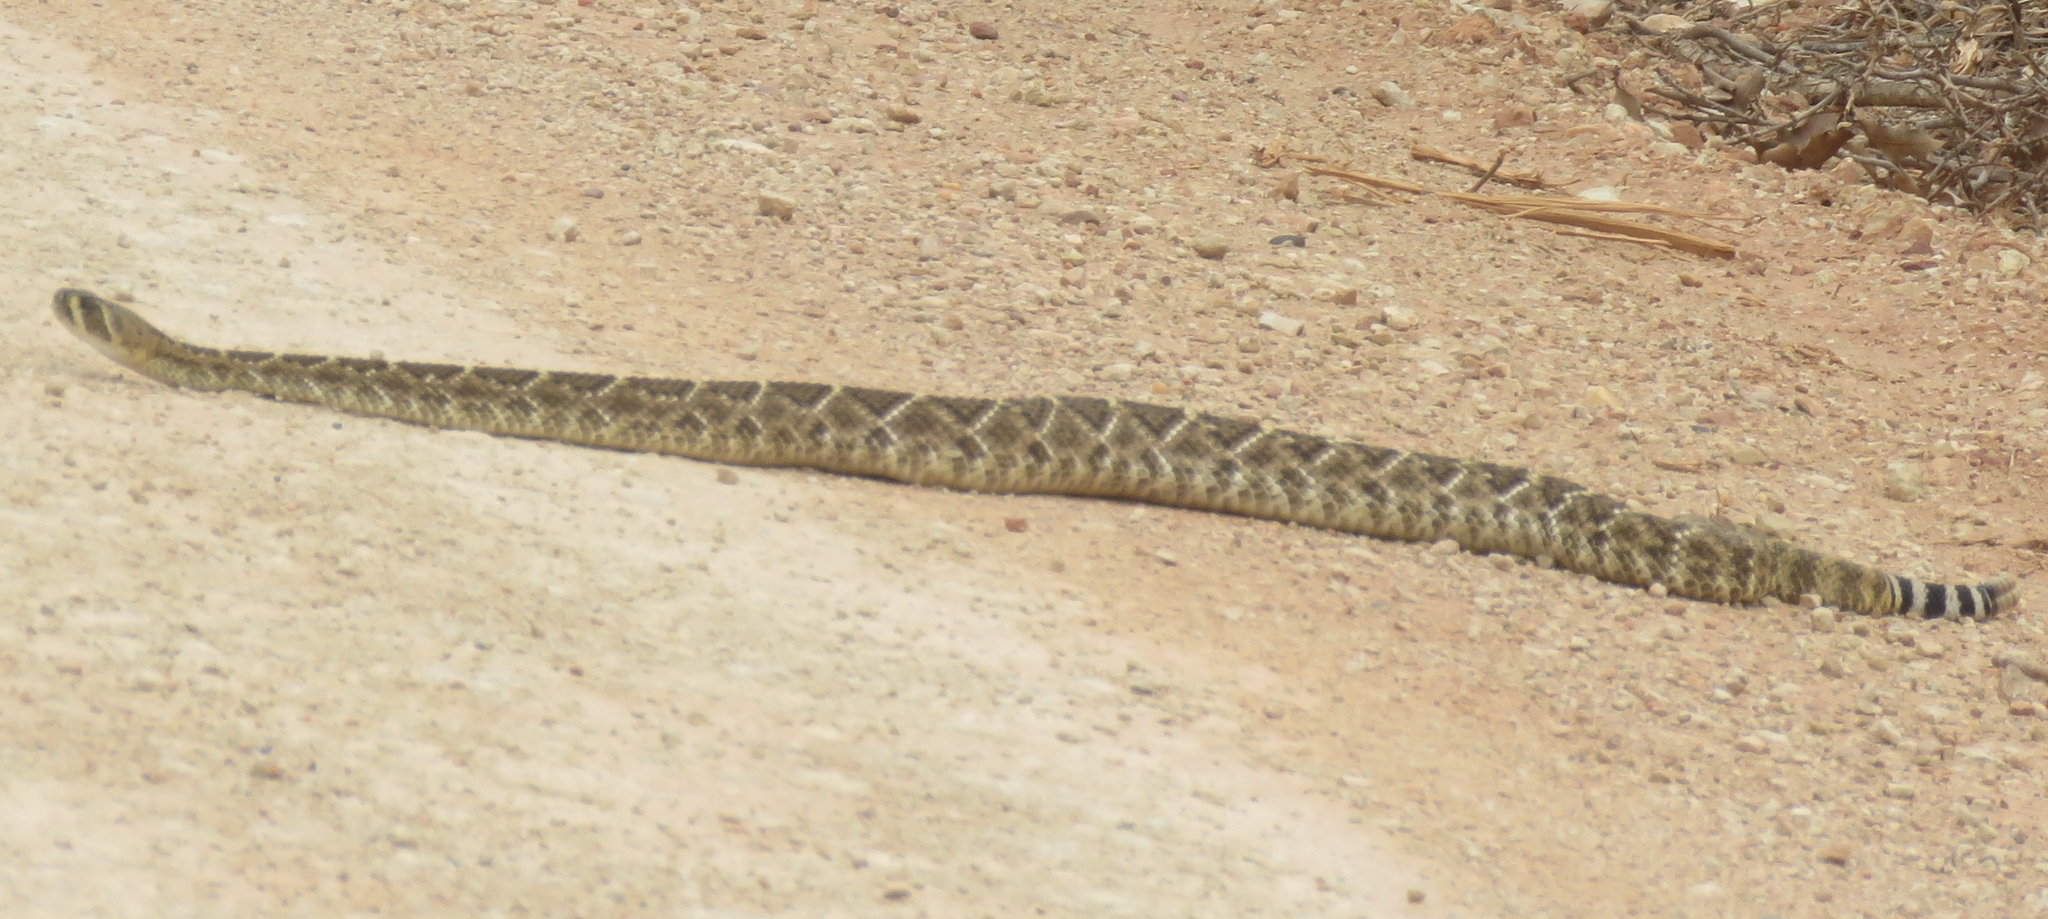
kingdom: Animalia
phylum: Chordata
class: Squamata
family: Viperidae
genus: Crotalus
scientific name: Crotalus atrox
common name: Western diamond-backed rattlesnake
